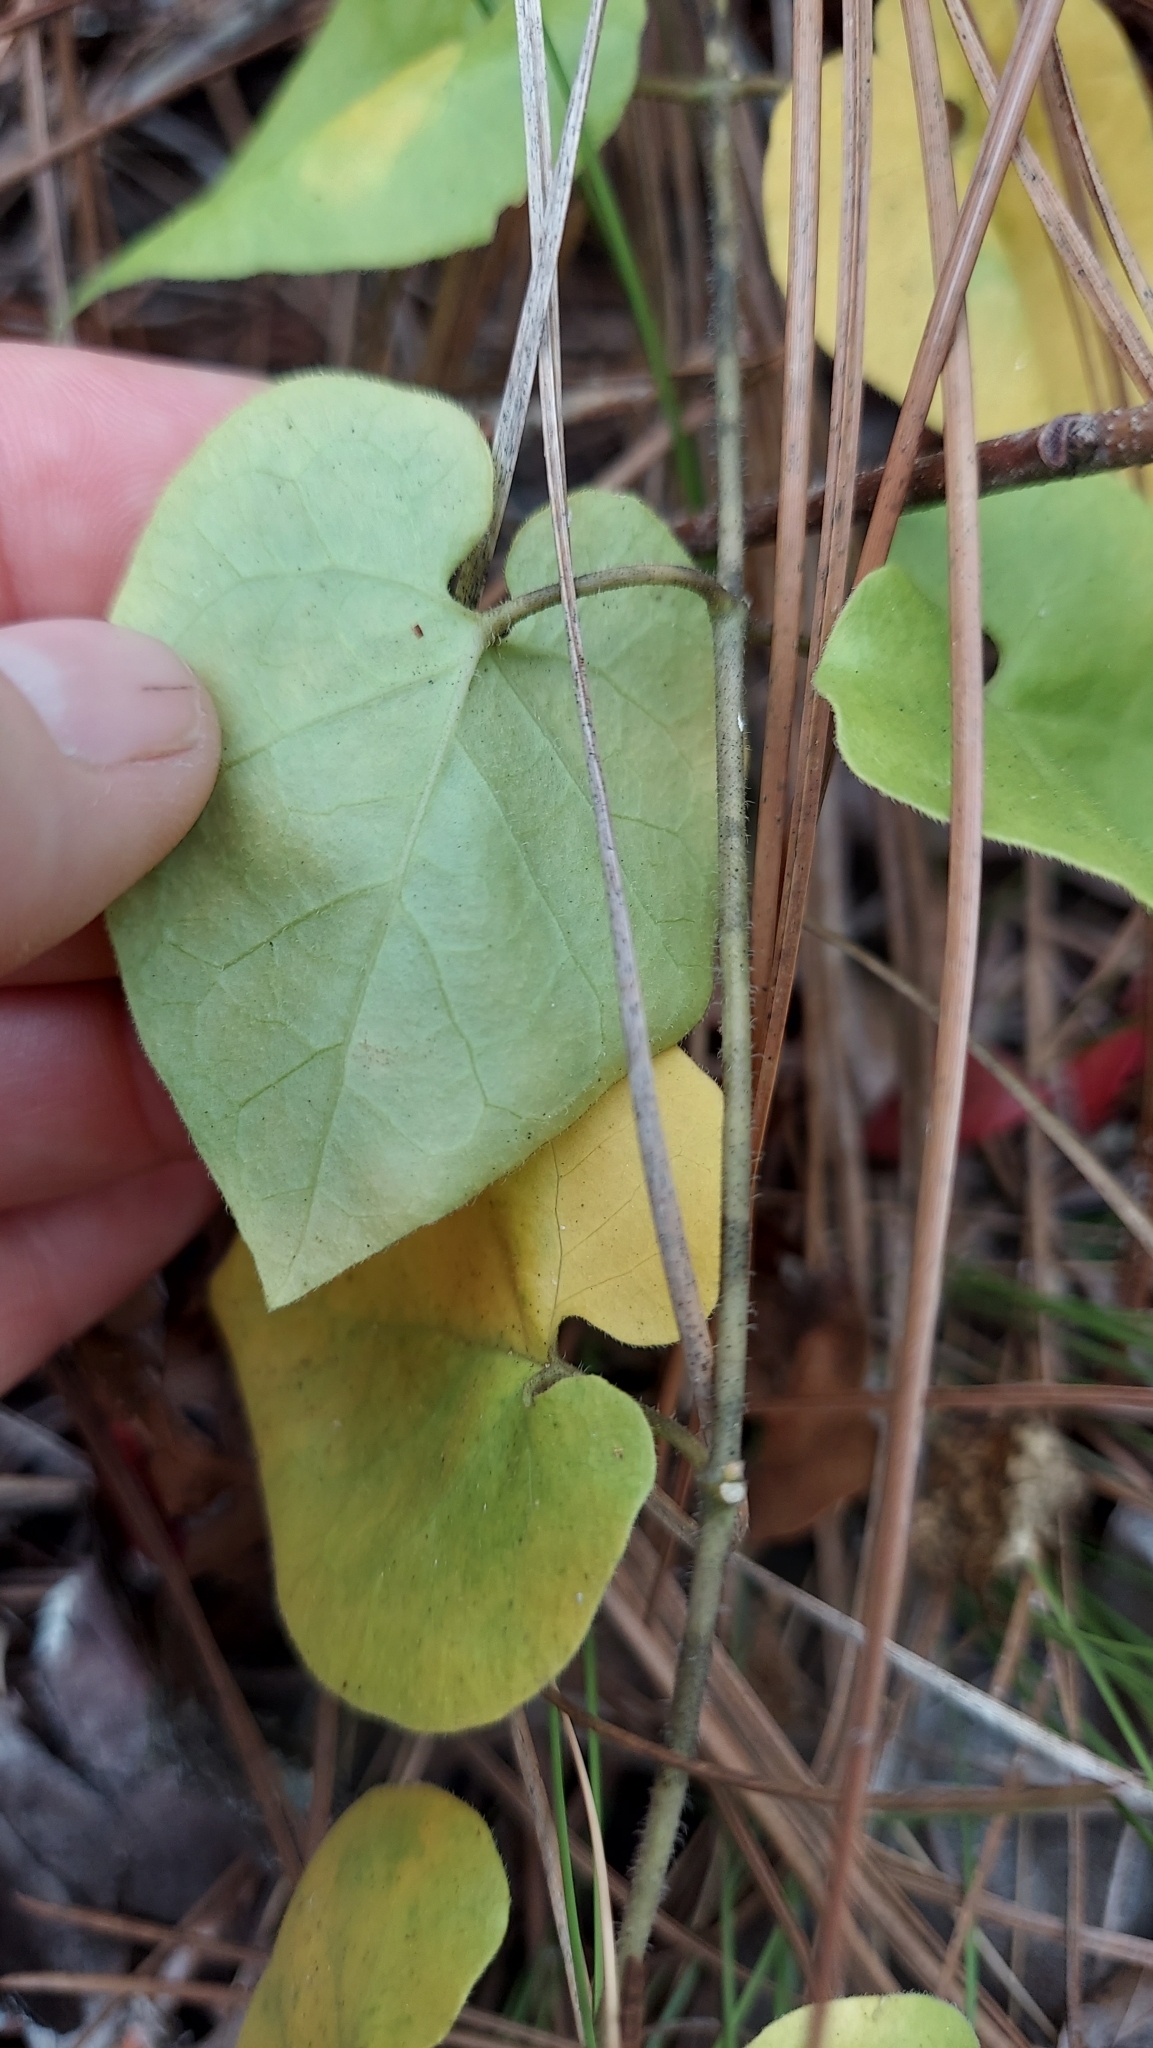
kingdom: Plantae
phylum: Tracheophyta
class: Magnoliopsida
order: Gentianales
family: Apocynaceae
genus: Chthamalia
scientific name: Chthamalia pubiflora
